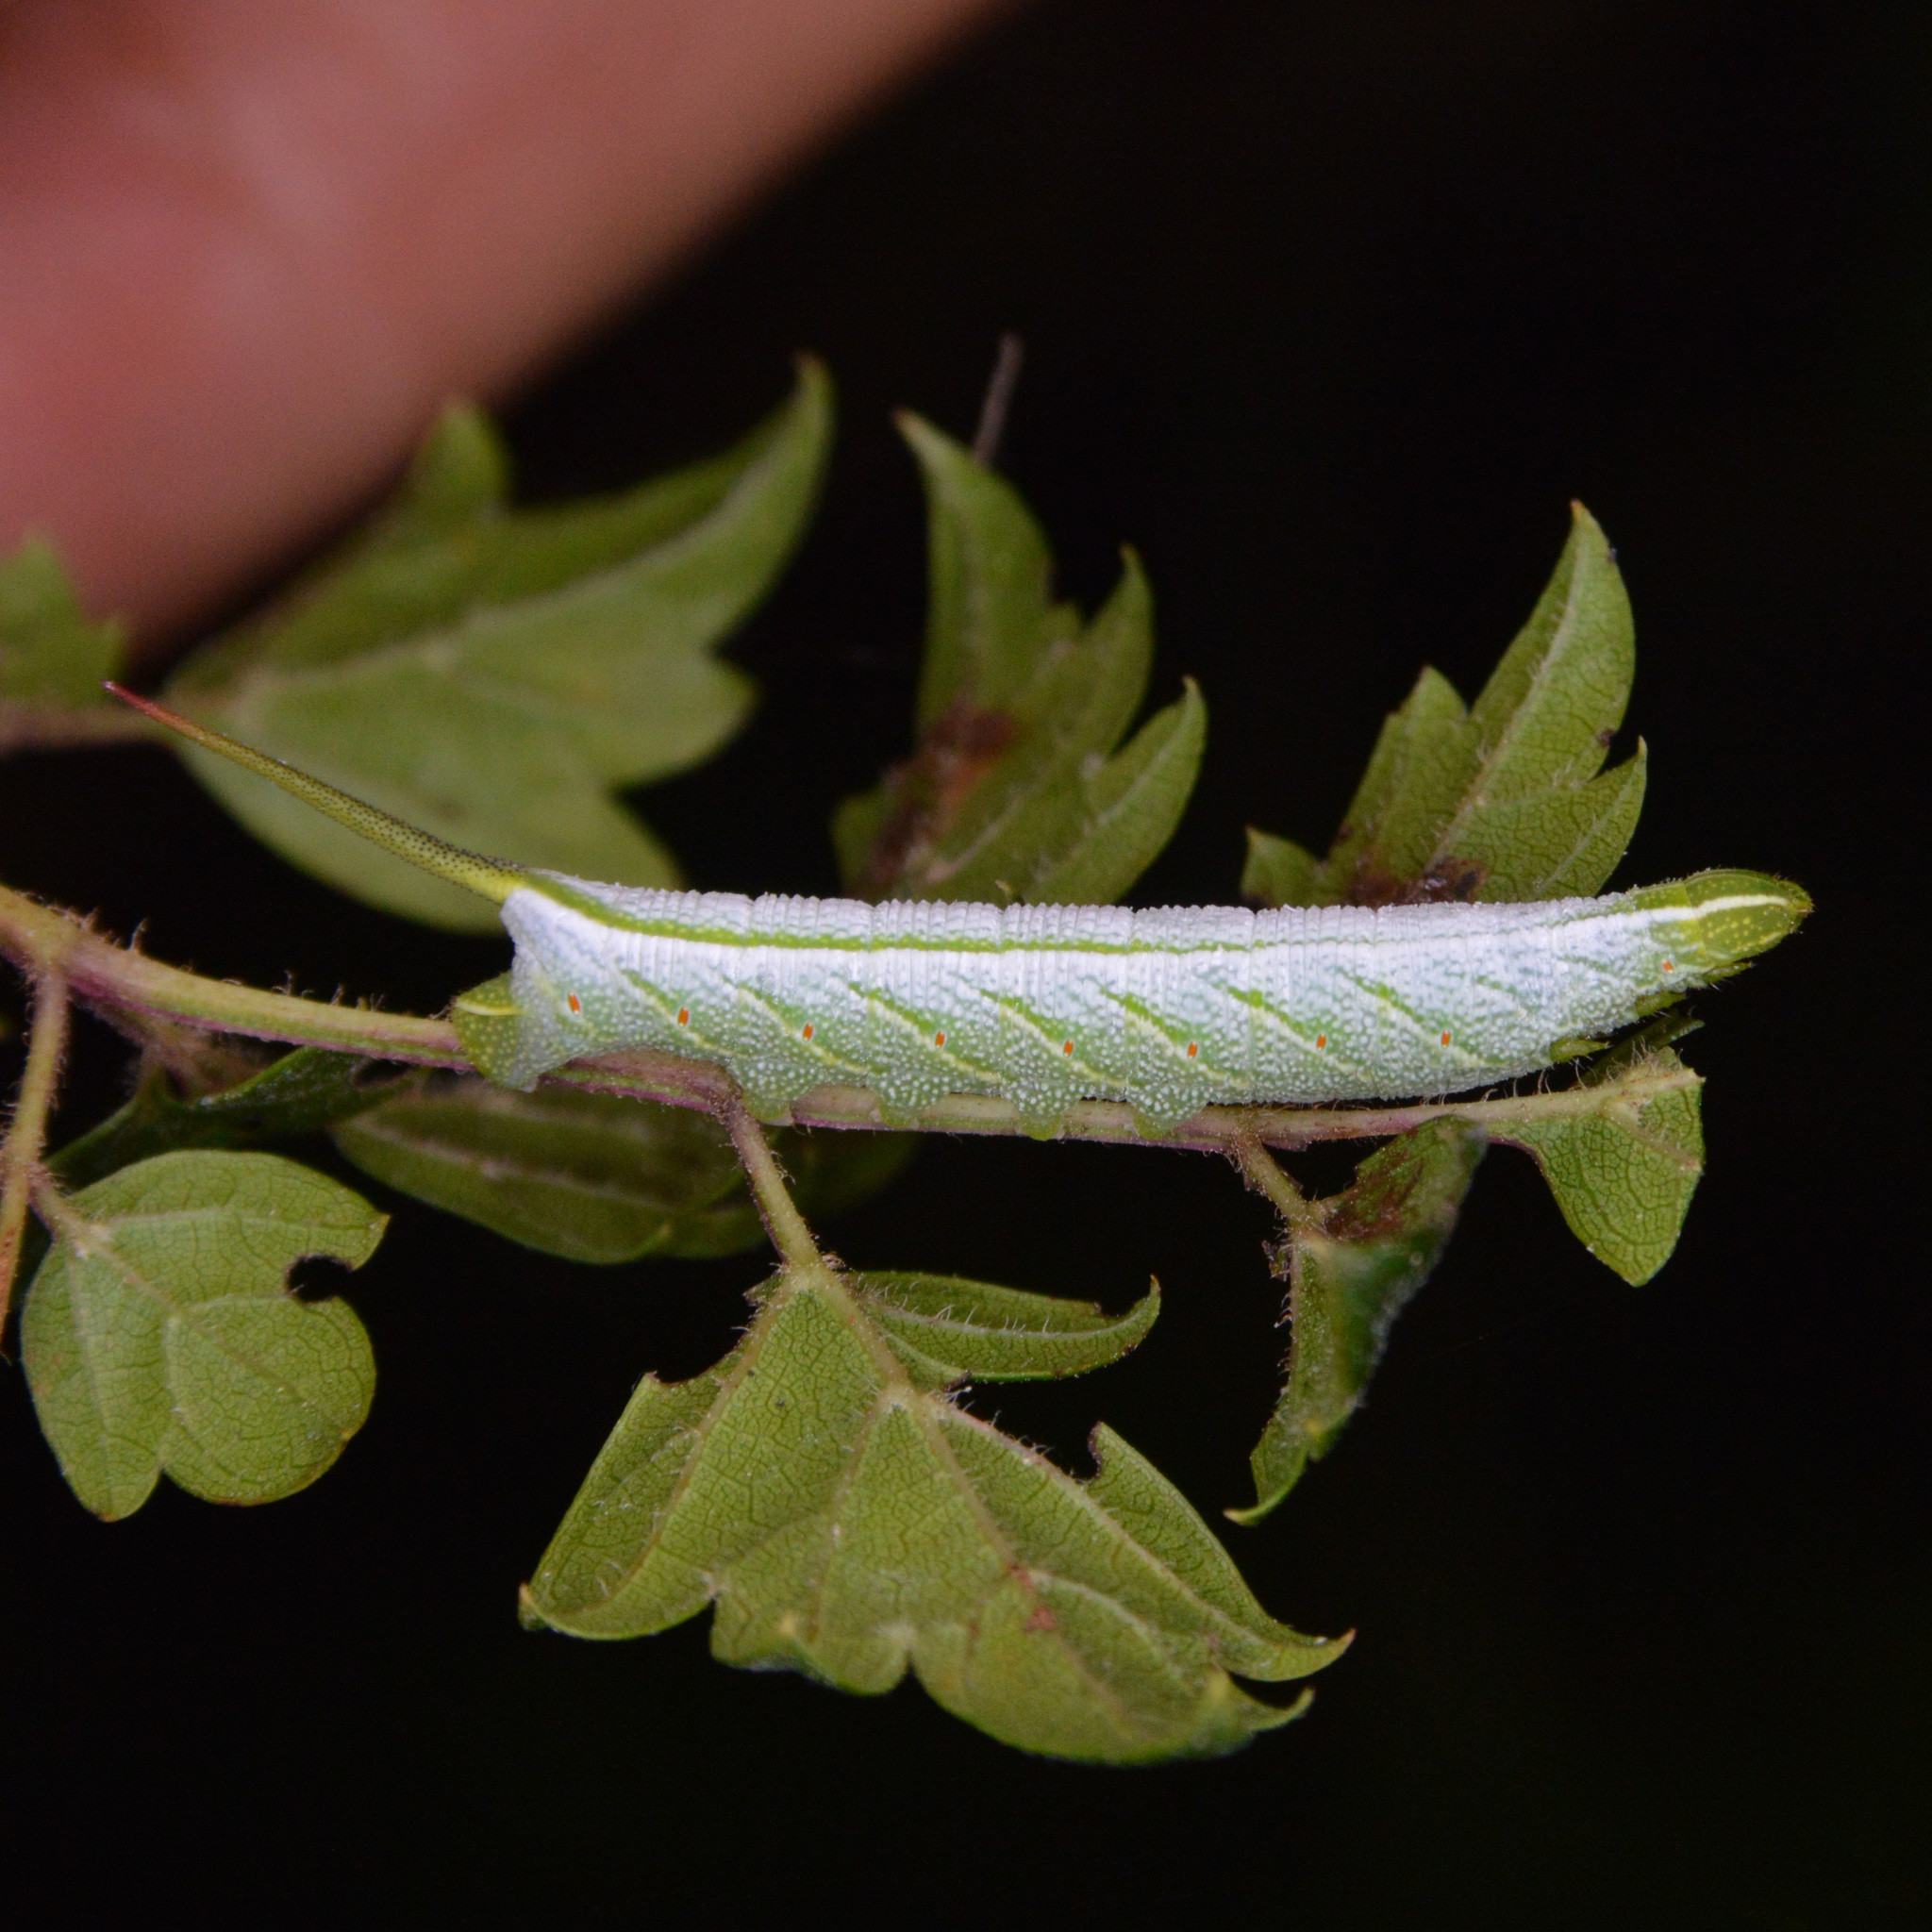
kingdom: Animalia
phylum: Arthropoda
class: Insecta
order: Lepidoptera
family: Sphingidae
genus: Enyo
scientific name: Enyo lugubris
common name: Mournful sphinx
